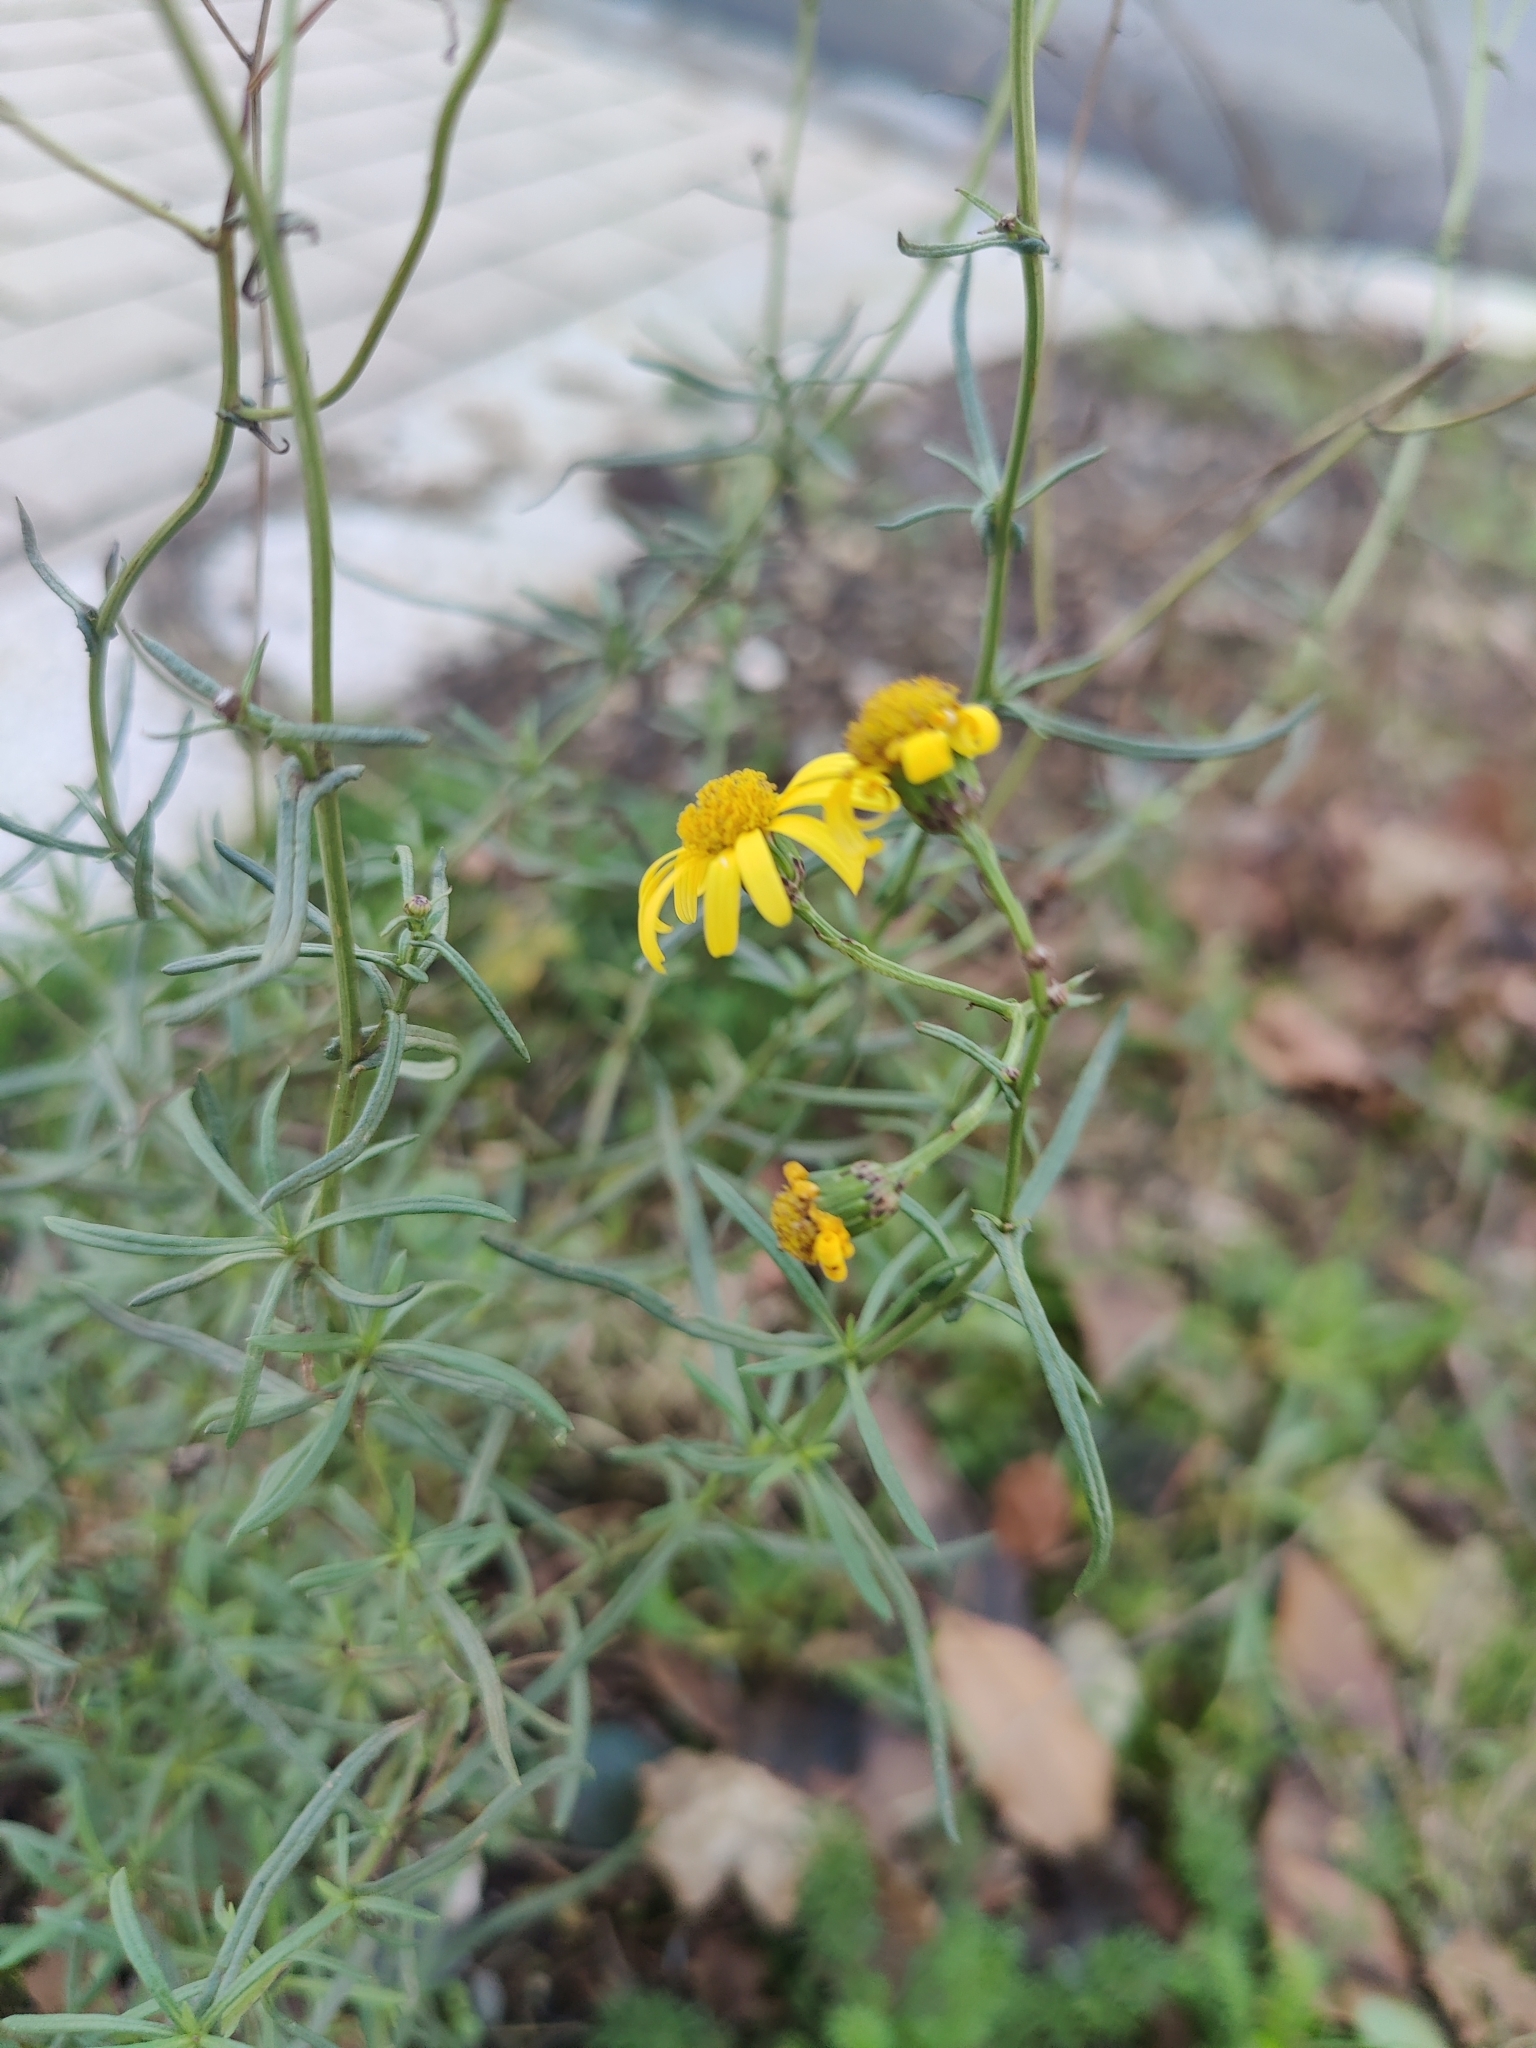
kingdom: Plantae
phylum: Tracheophyta
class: Magnoliopsida
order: Asterales
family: Asteraceae
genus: Senecio
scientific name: Senecio inaequidens
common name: Narrow-leaved ragwort
